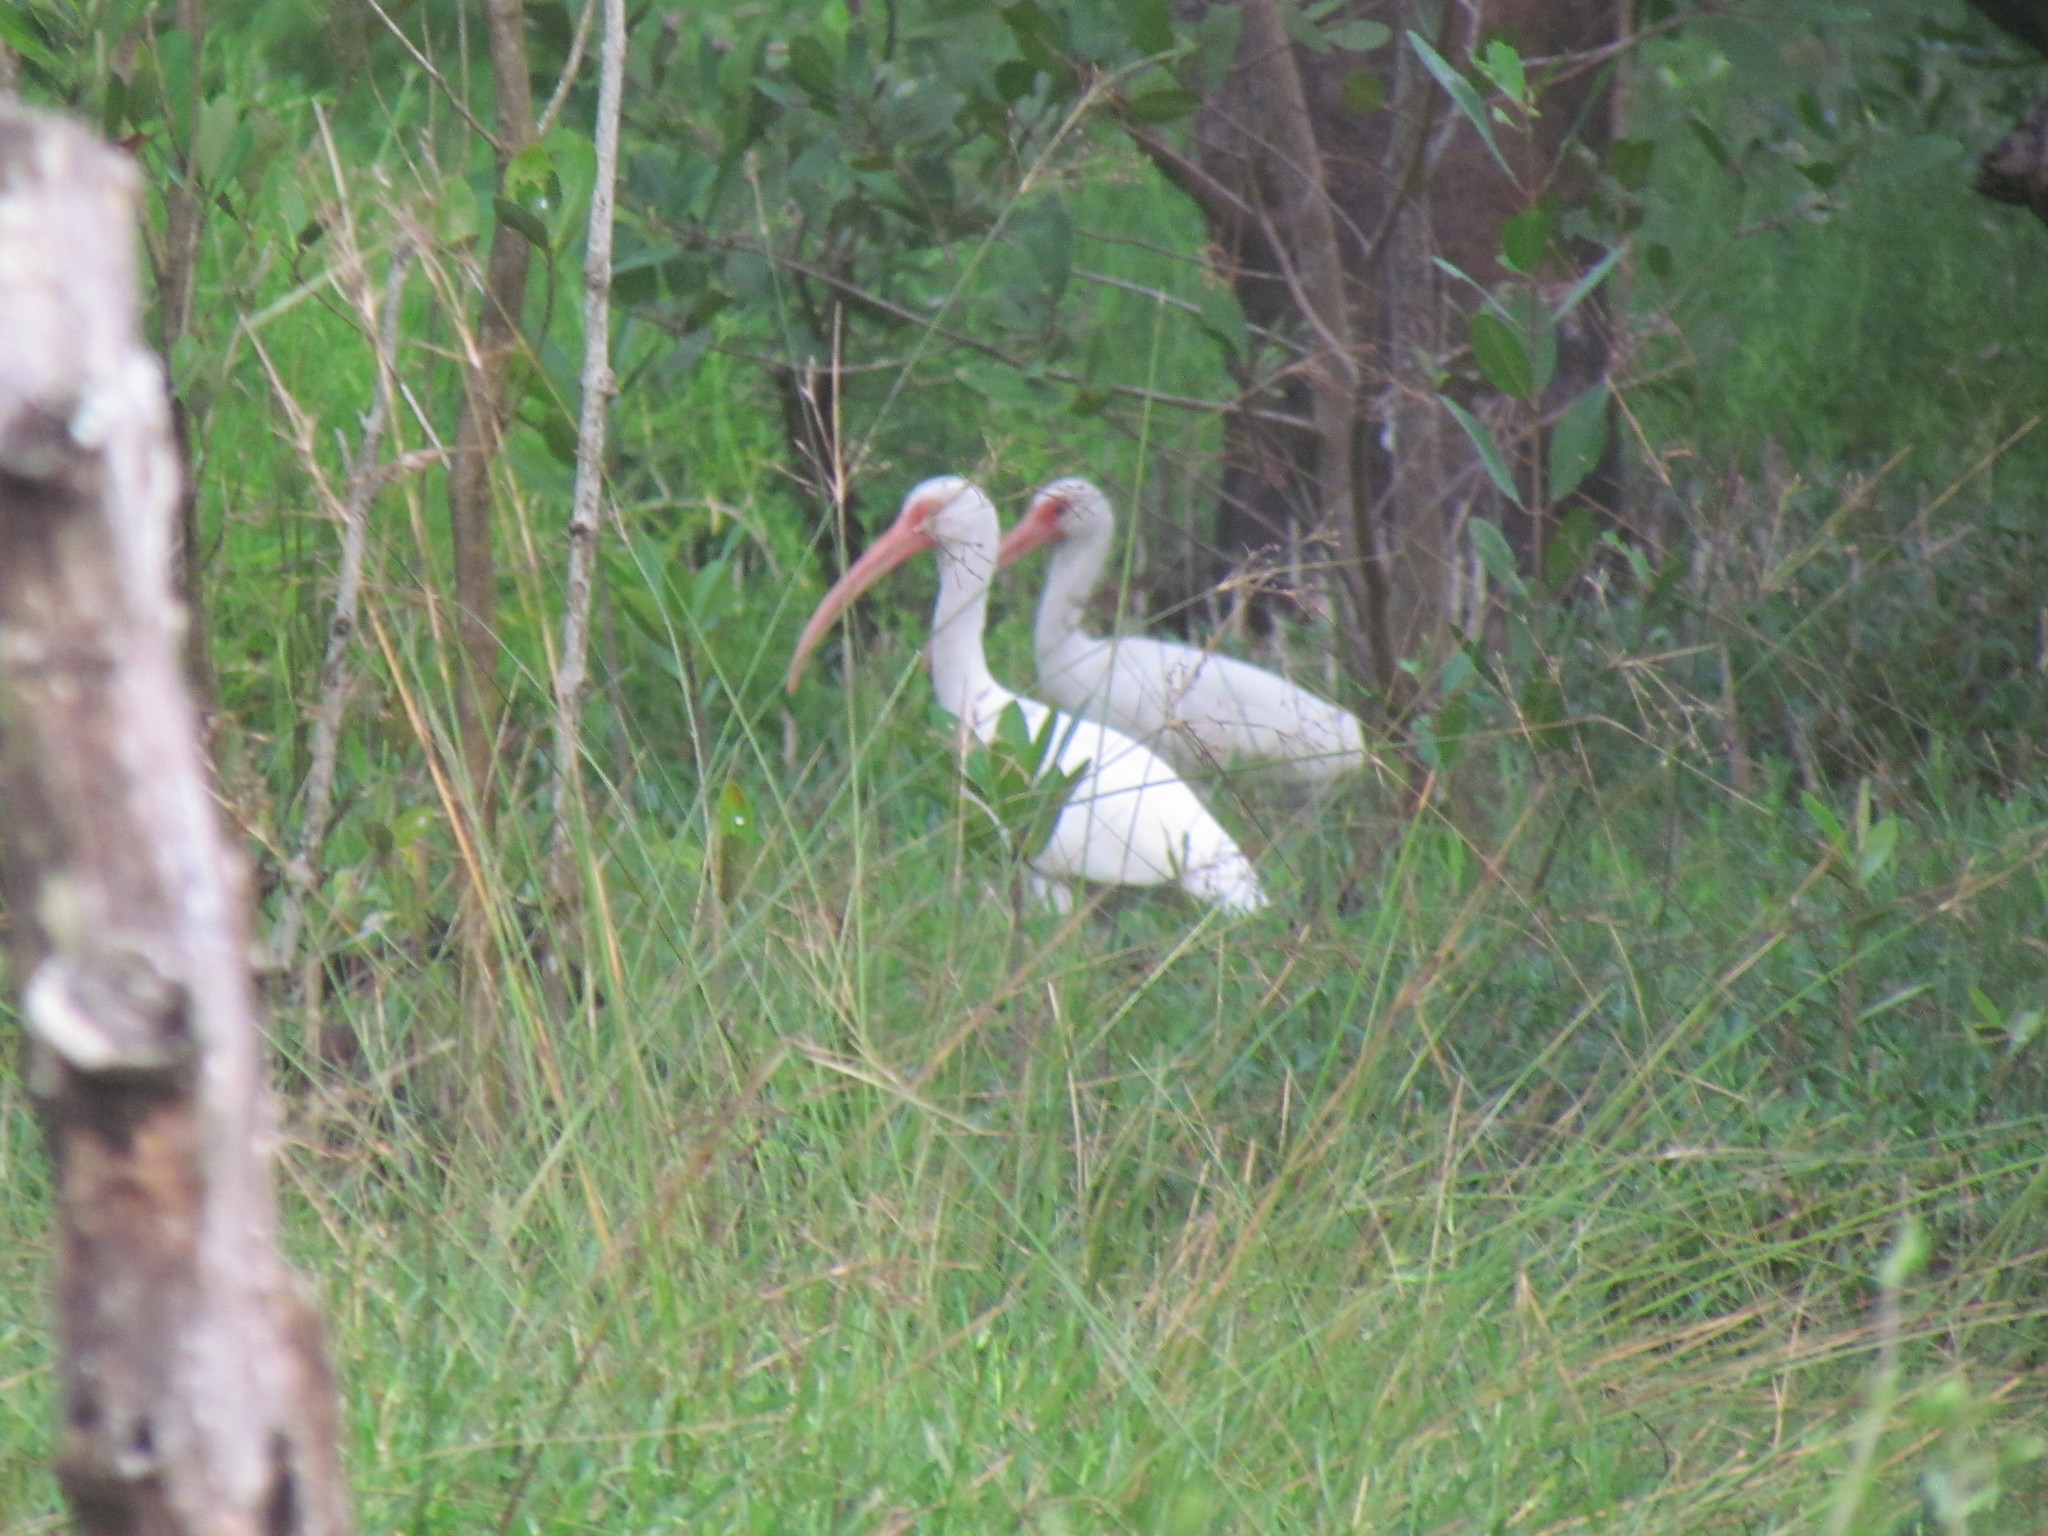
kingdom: Animalia
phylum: Chordata
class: Aves
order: Pelecaniformes
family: Threskiornithidae
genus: Eudocimus
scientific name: Eudocimus albus
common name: White ibis
